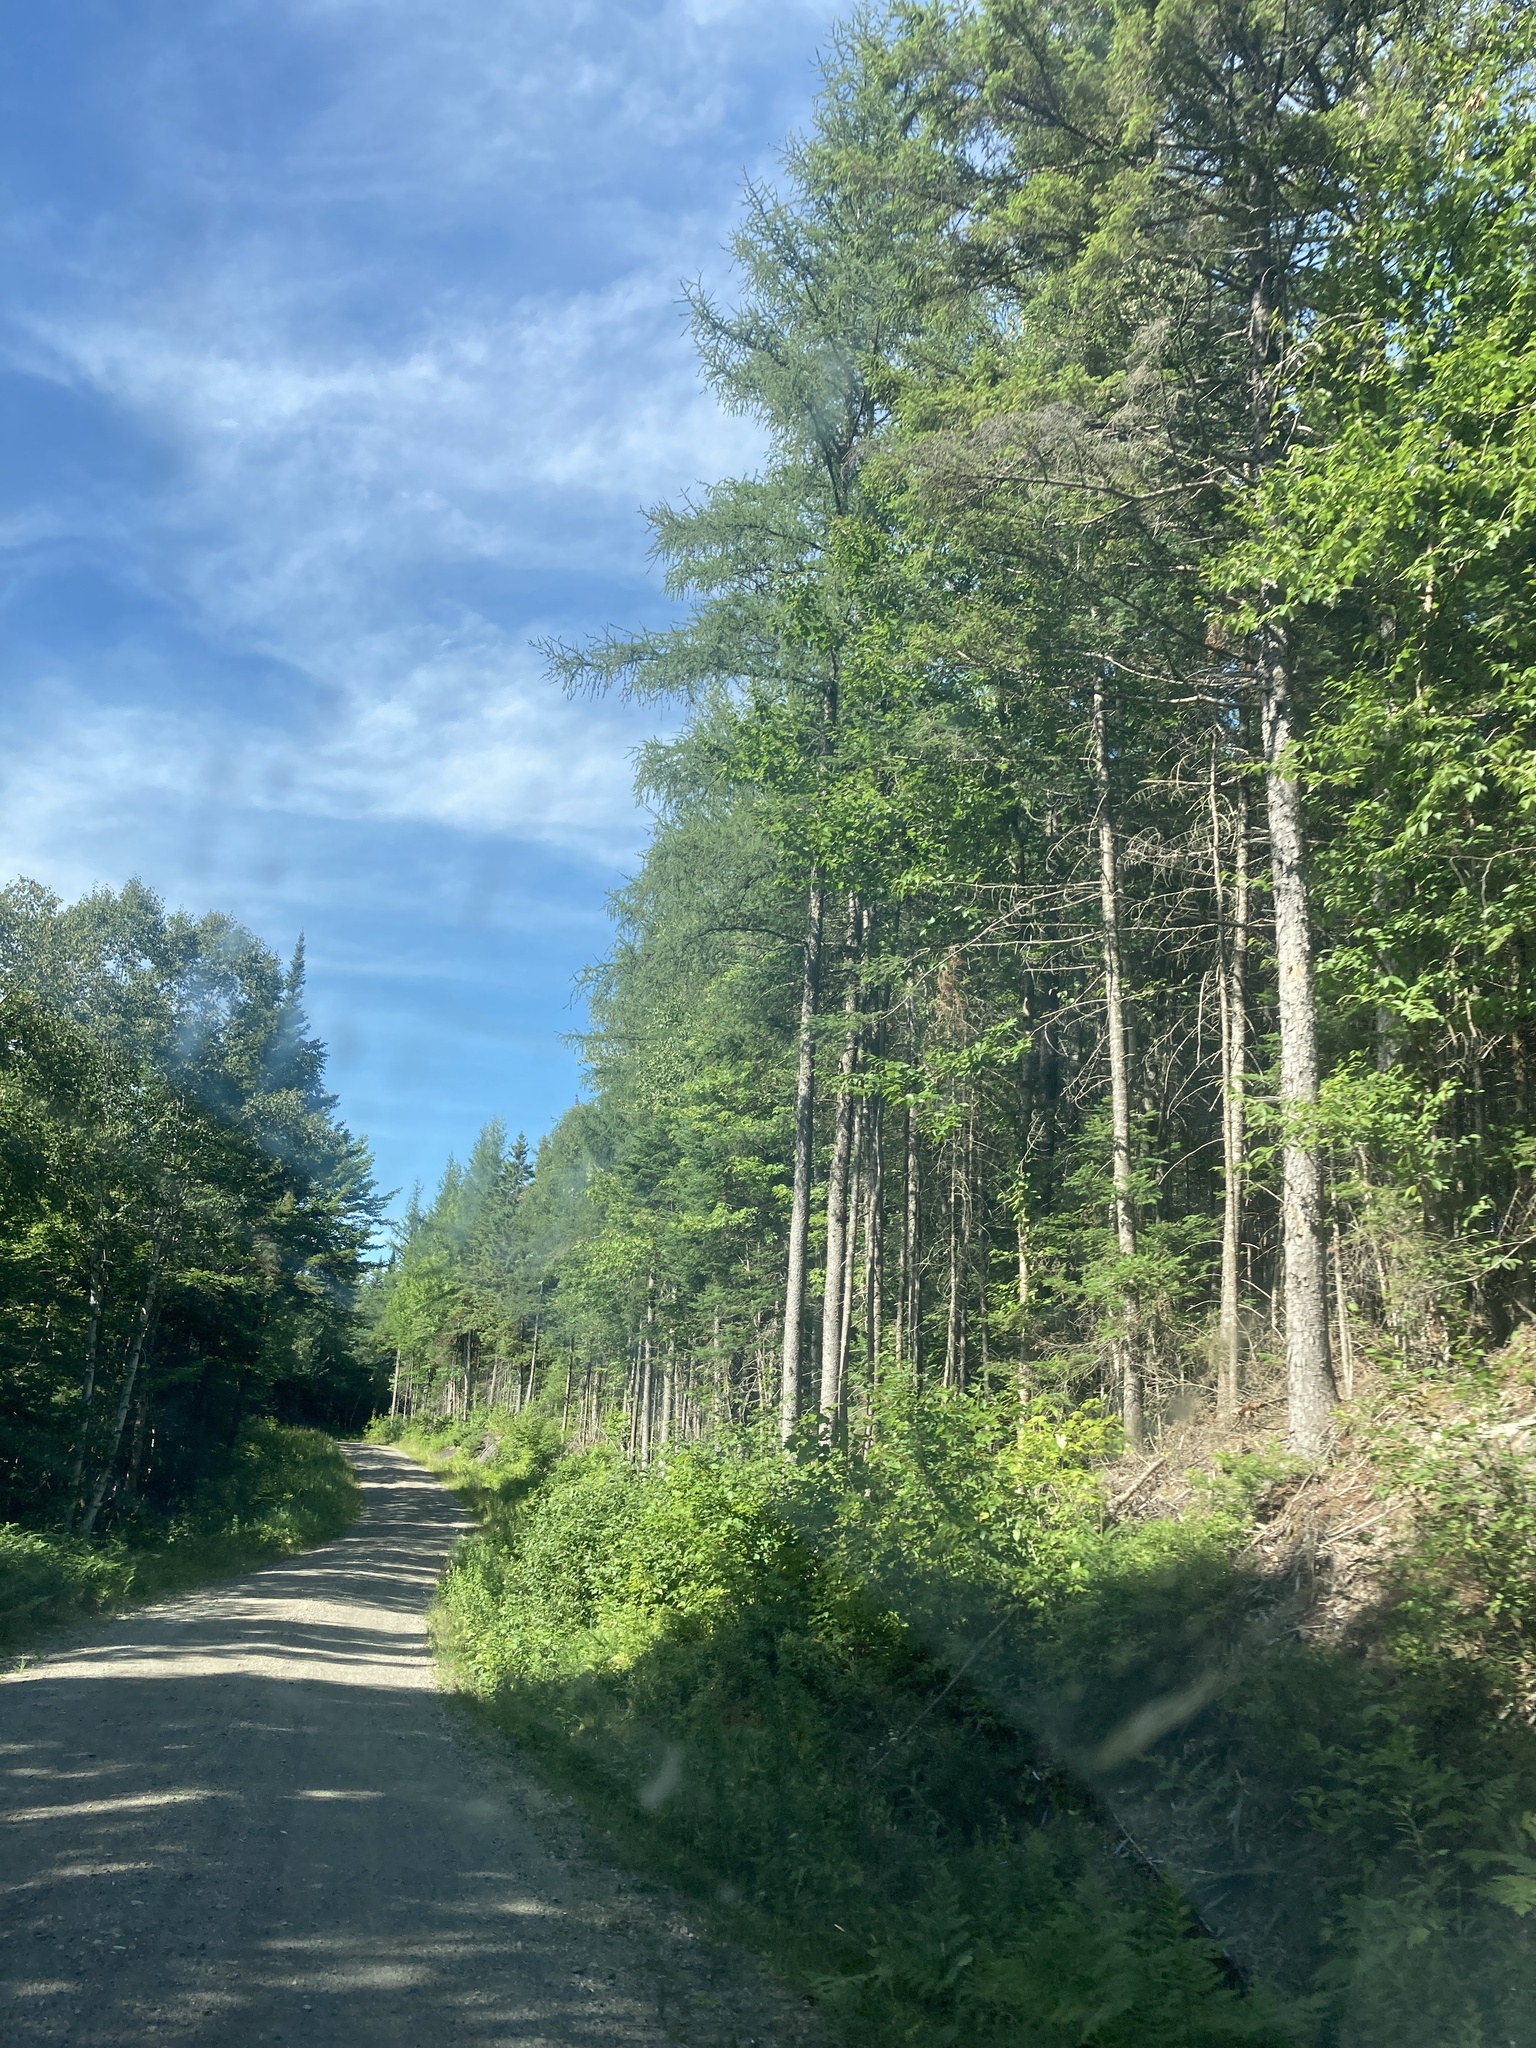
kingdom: Plantae
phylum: Tracheophyta
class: Pinopsida
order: Pinales
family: Pinaceae
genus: Larix
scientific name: Larix laricina
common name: American larch
